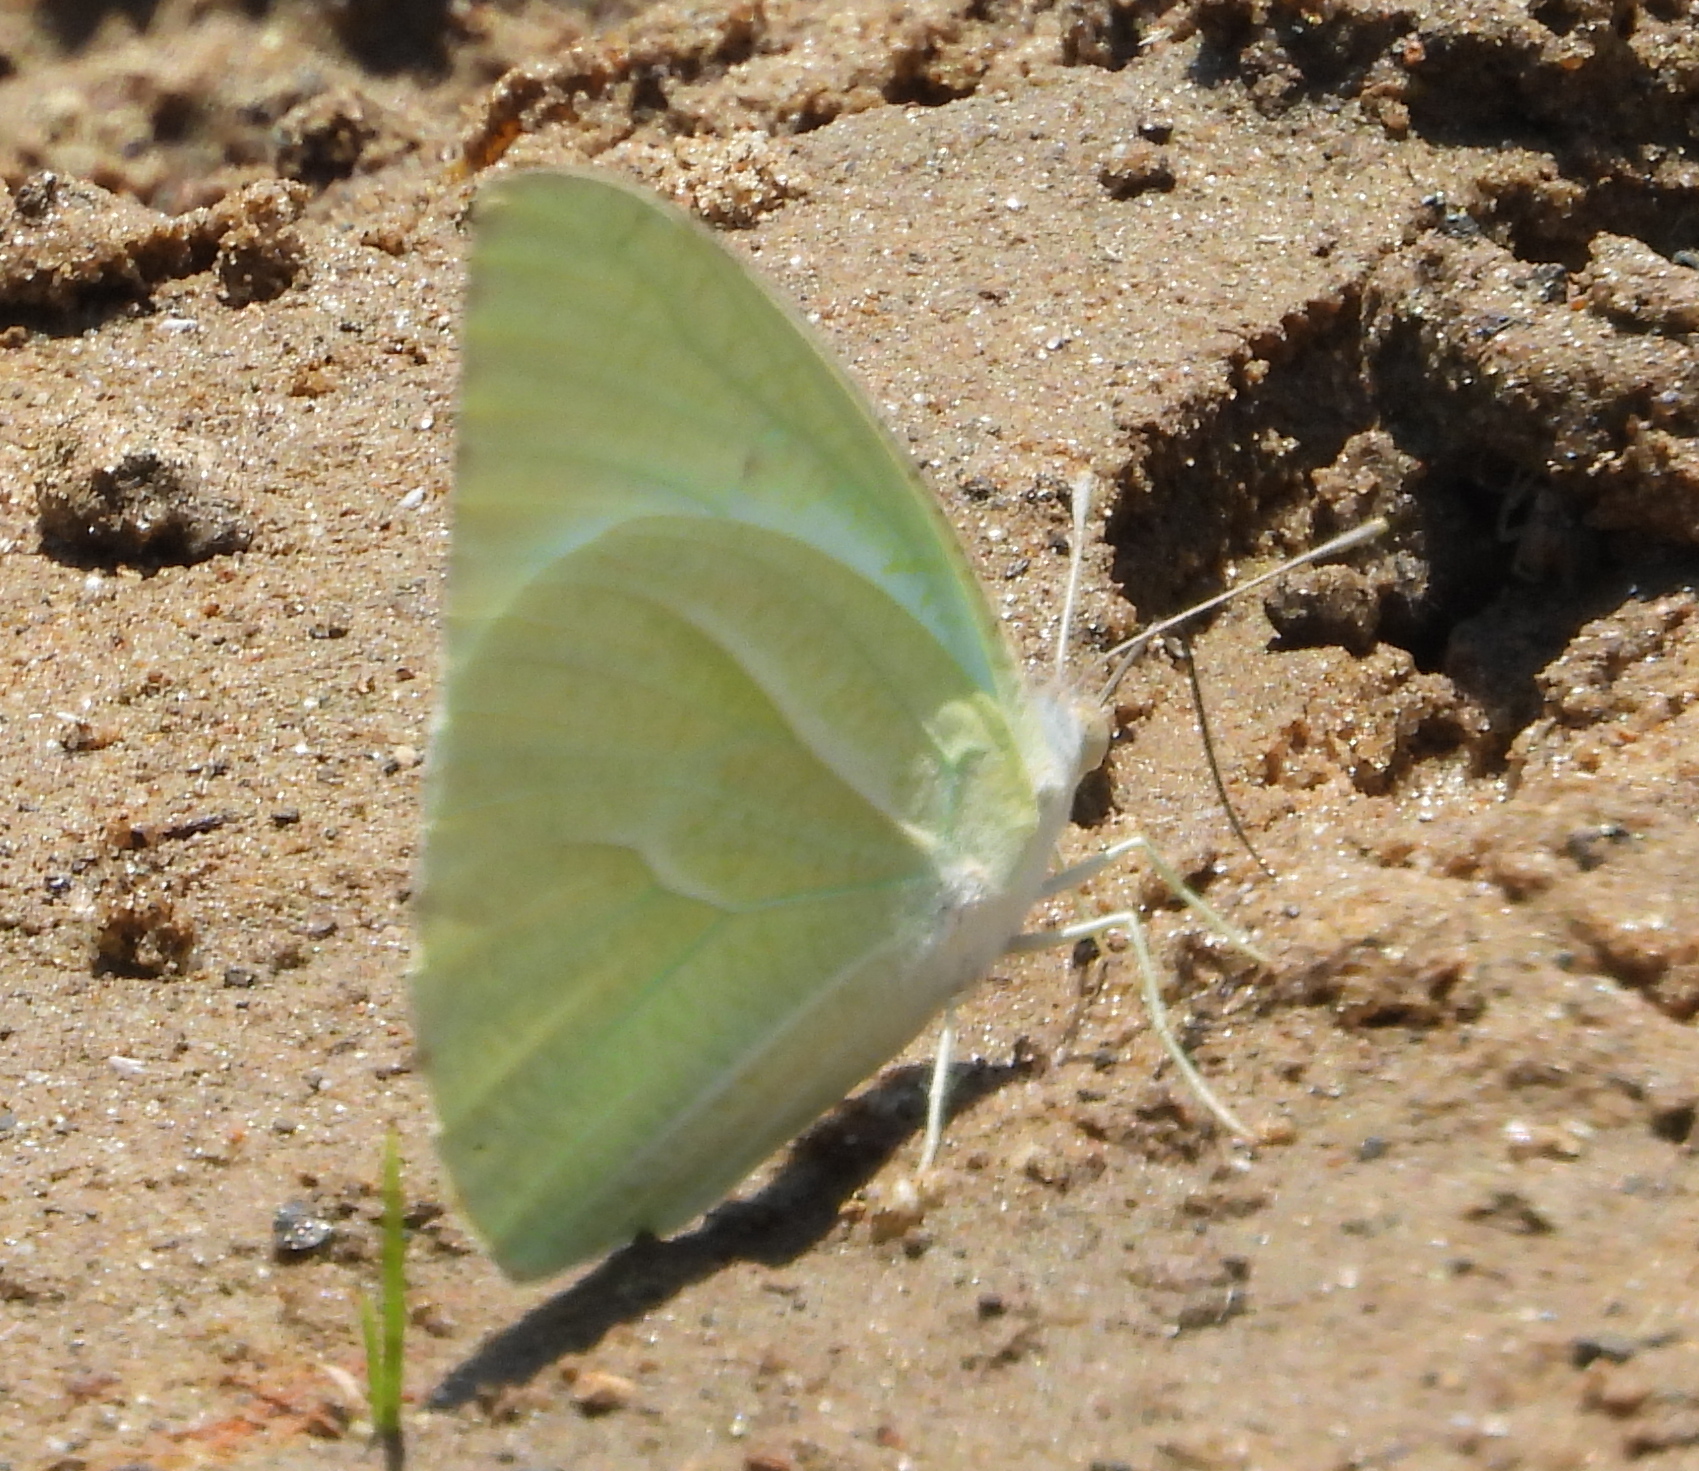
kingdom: Animalia
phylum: Arthropoda
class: Insecta
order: Lepidoptera
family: Pieridae
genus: Catopsilia
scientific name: Catopsilia florella
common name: African migrant
